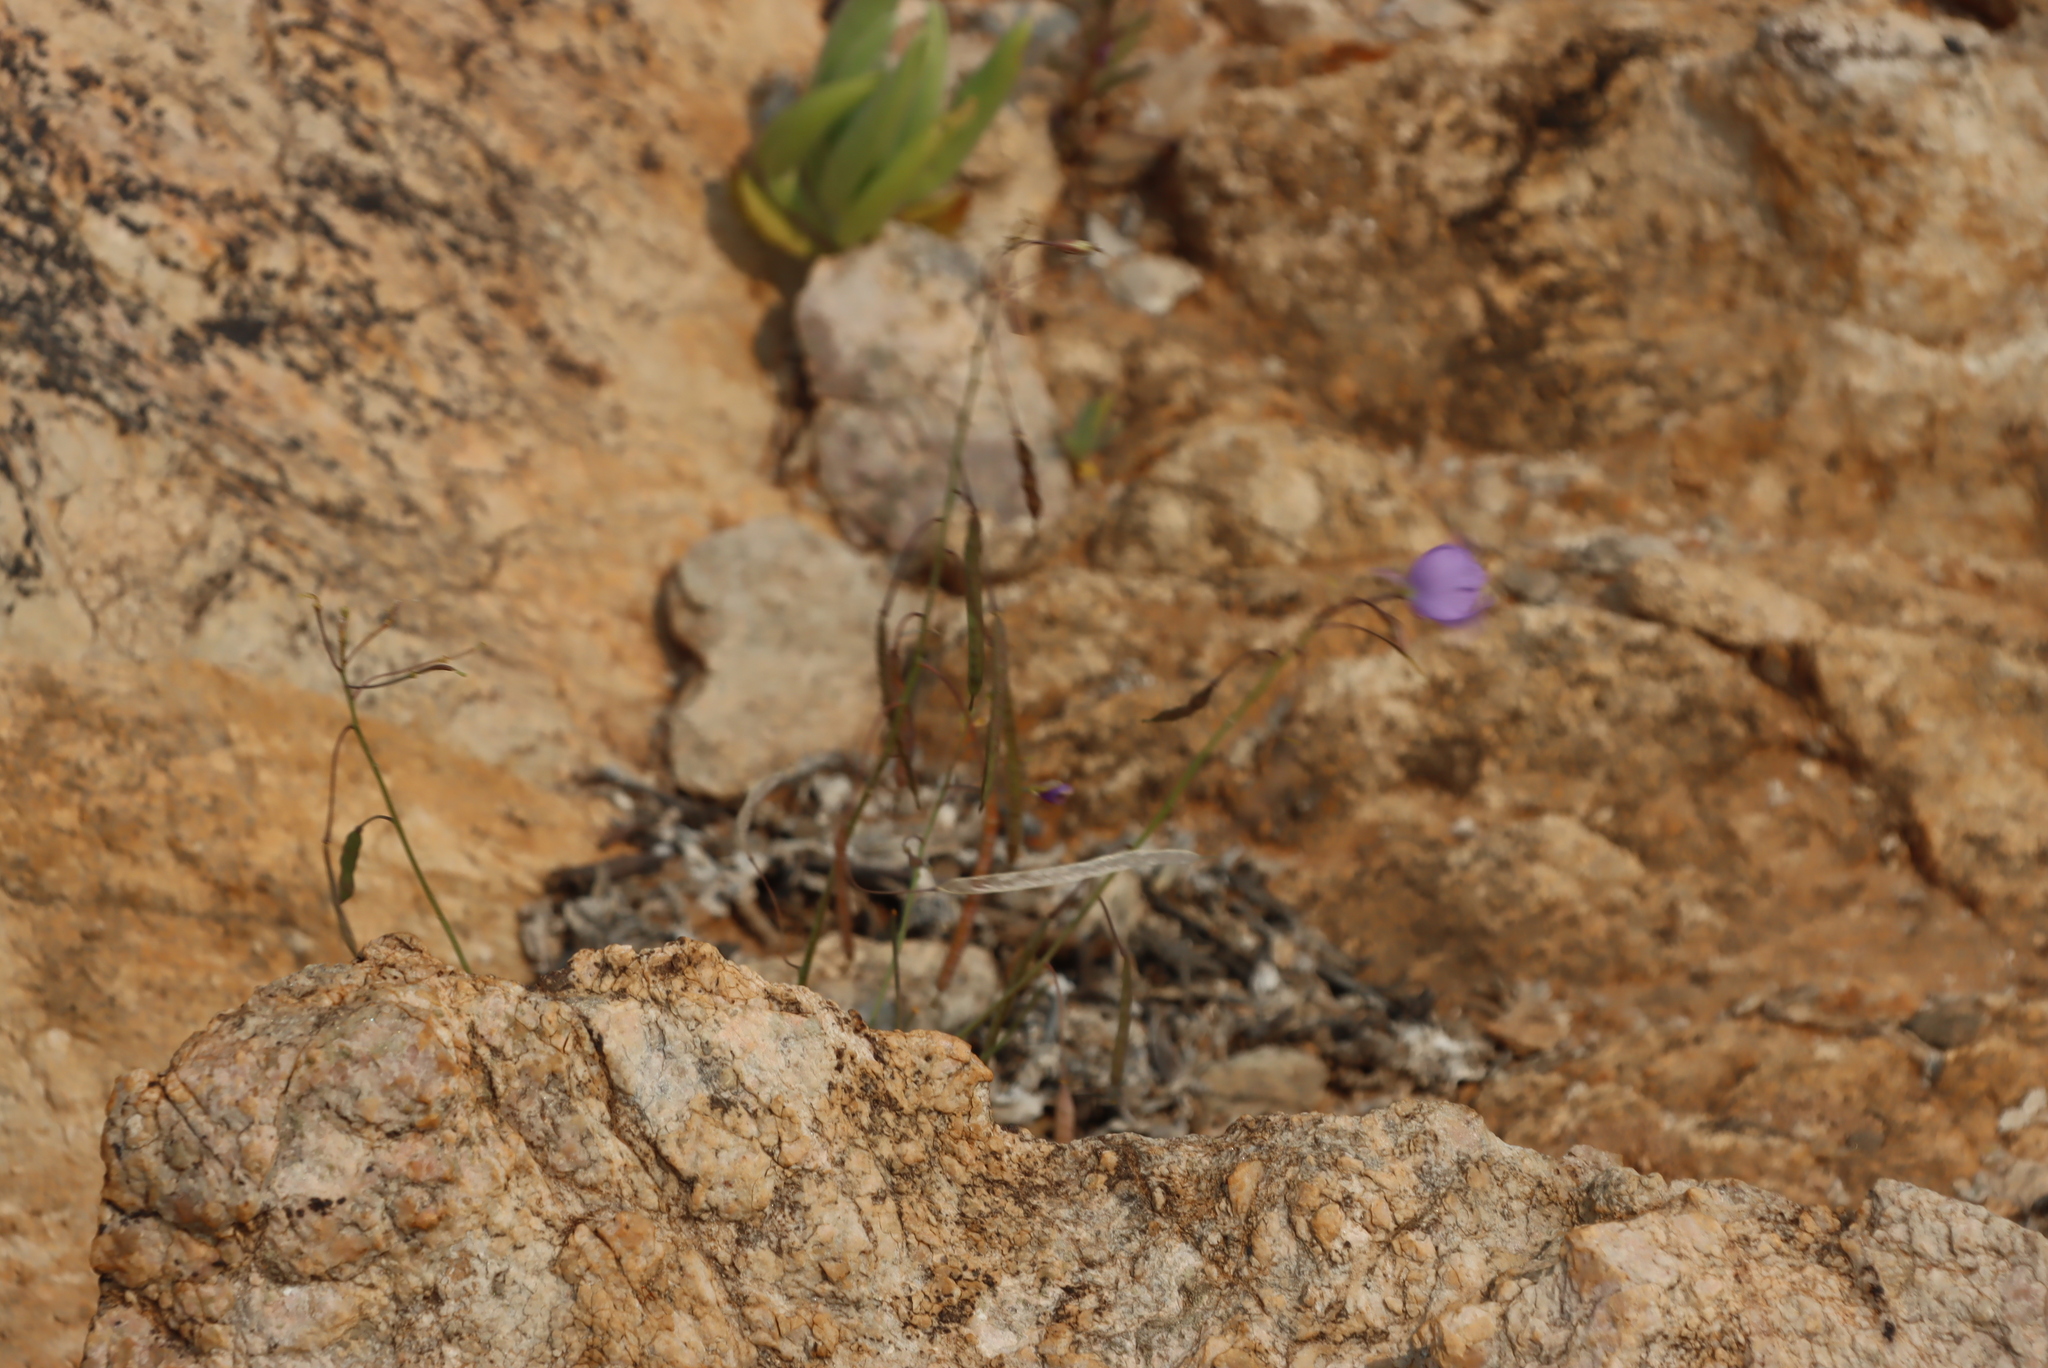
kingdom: Plantae
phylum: Tracheophyta
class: Magnoliopsida
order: Brassicales
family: Brassicaceae
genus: Heliophila
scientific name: Heliophila trifurca
